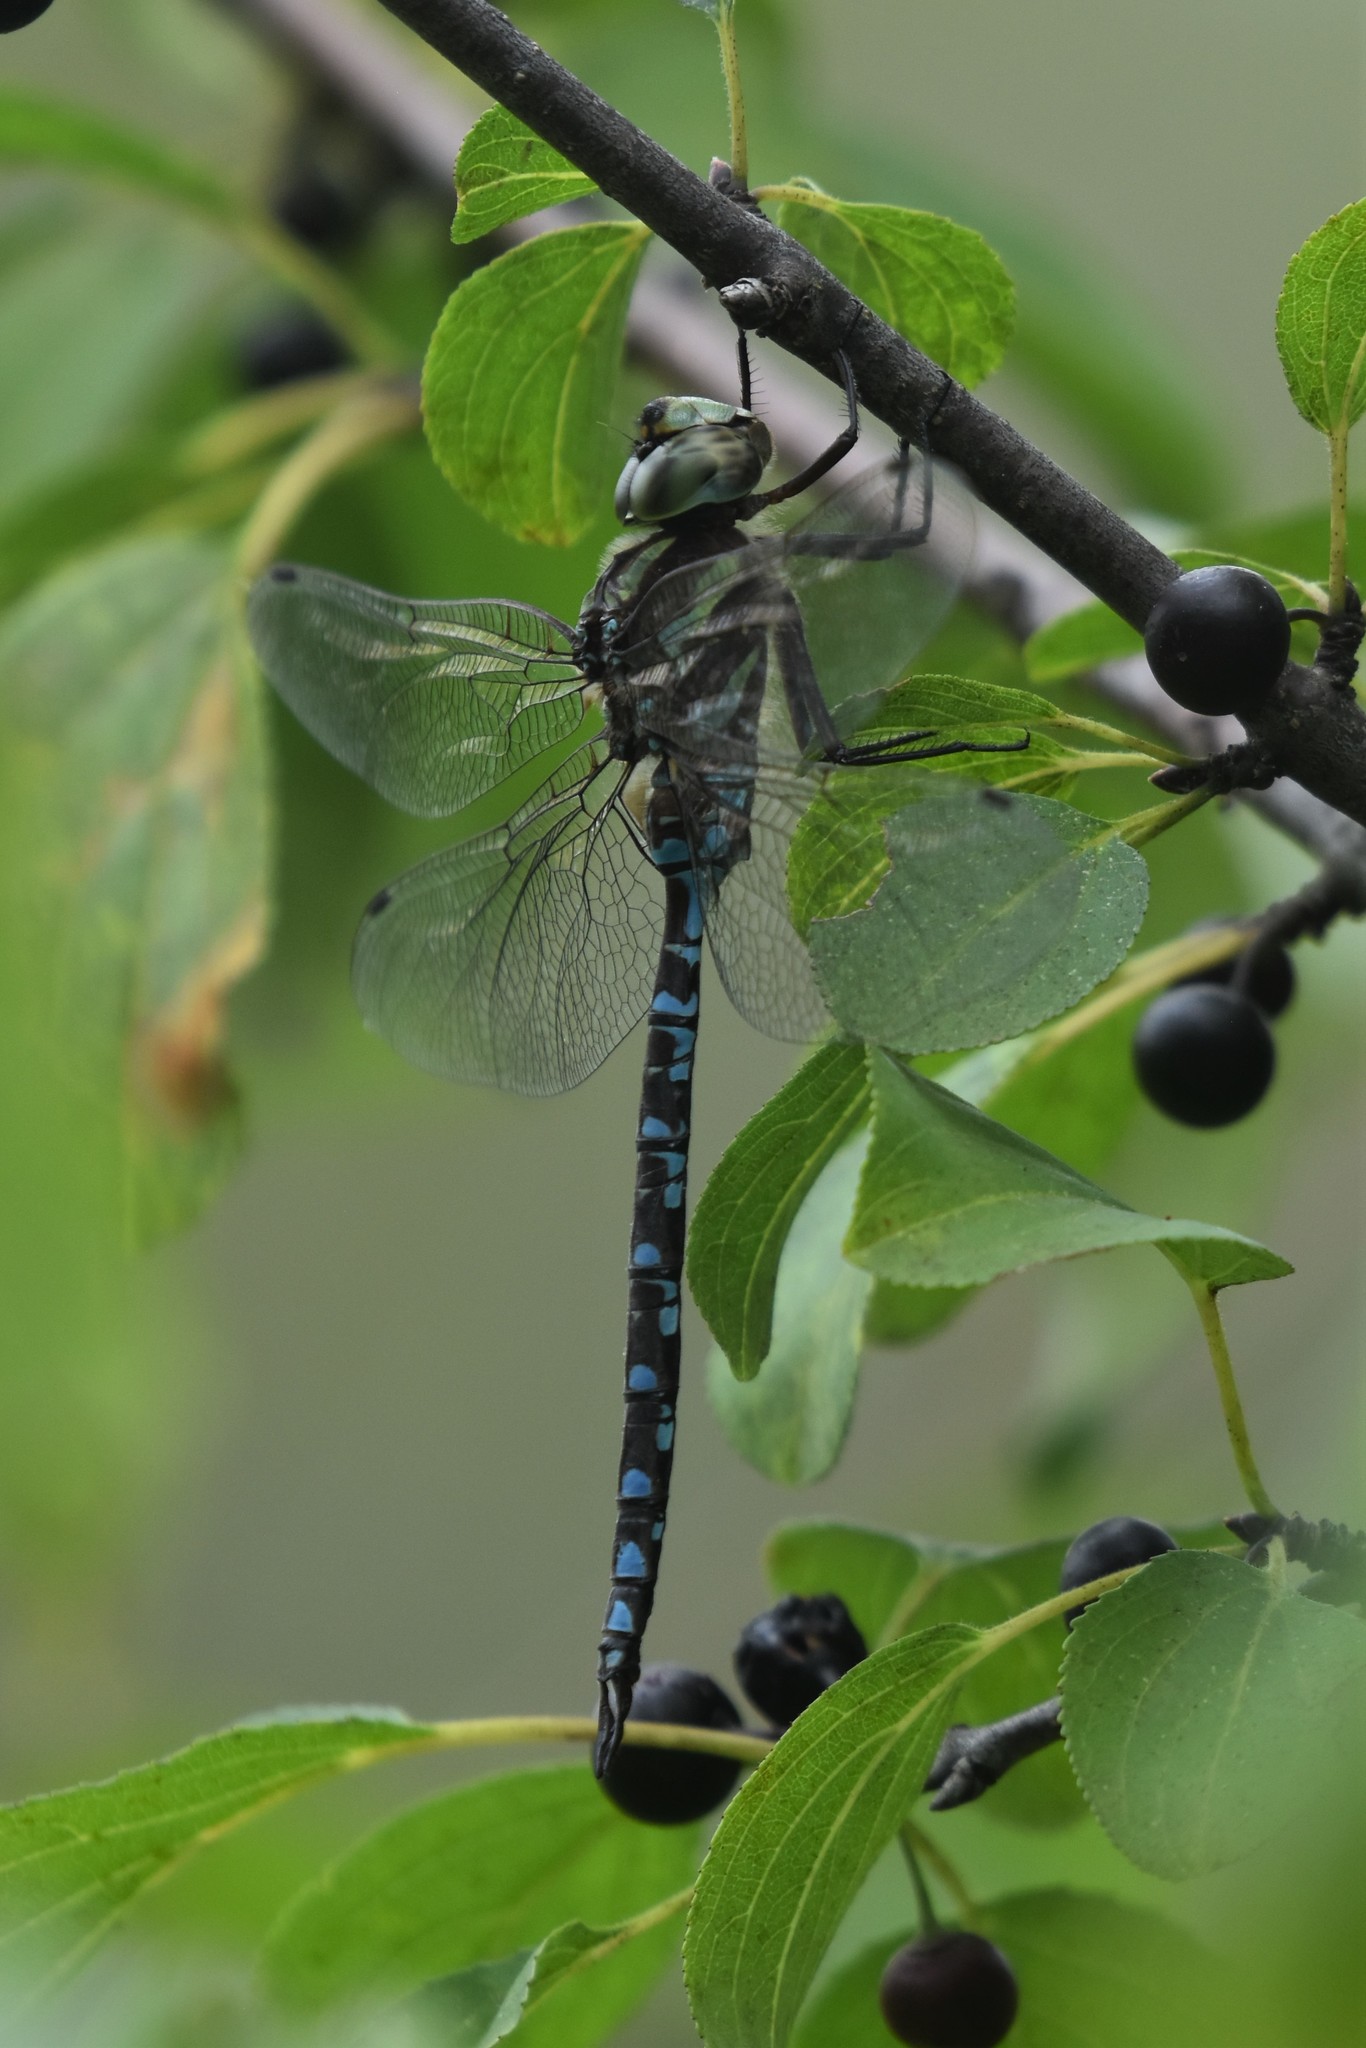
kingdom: Animalia
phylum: Arthropoda
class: Insecta
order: Odonata
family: Aeshnidae
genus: Aeshna
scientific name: Aeshna verticalis
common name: Green-striped darner
